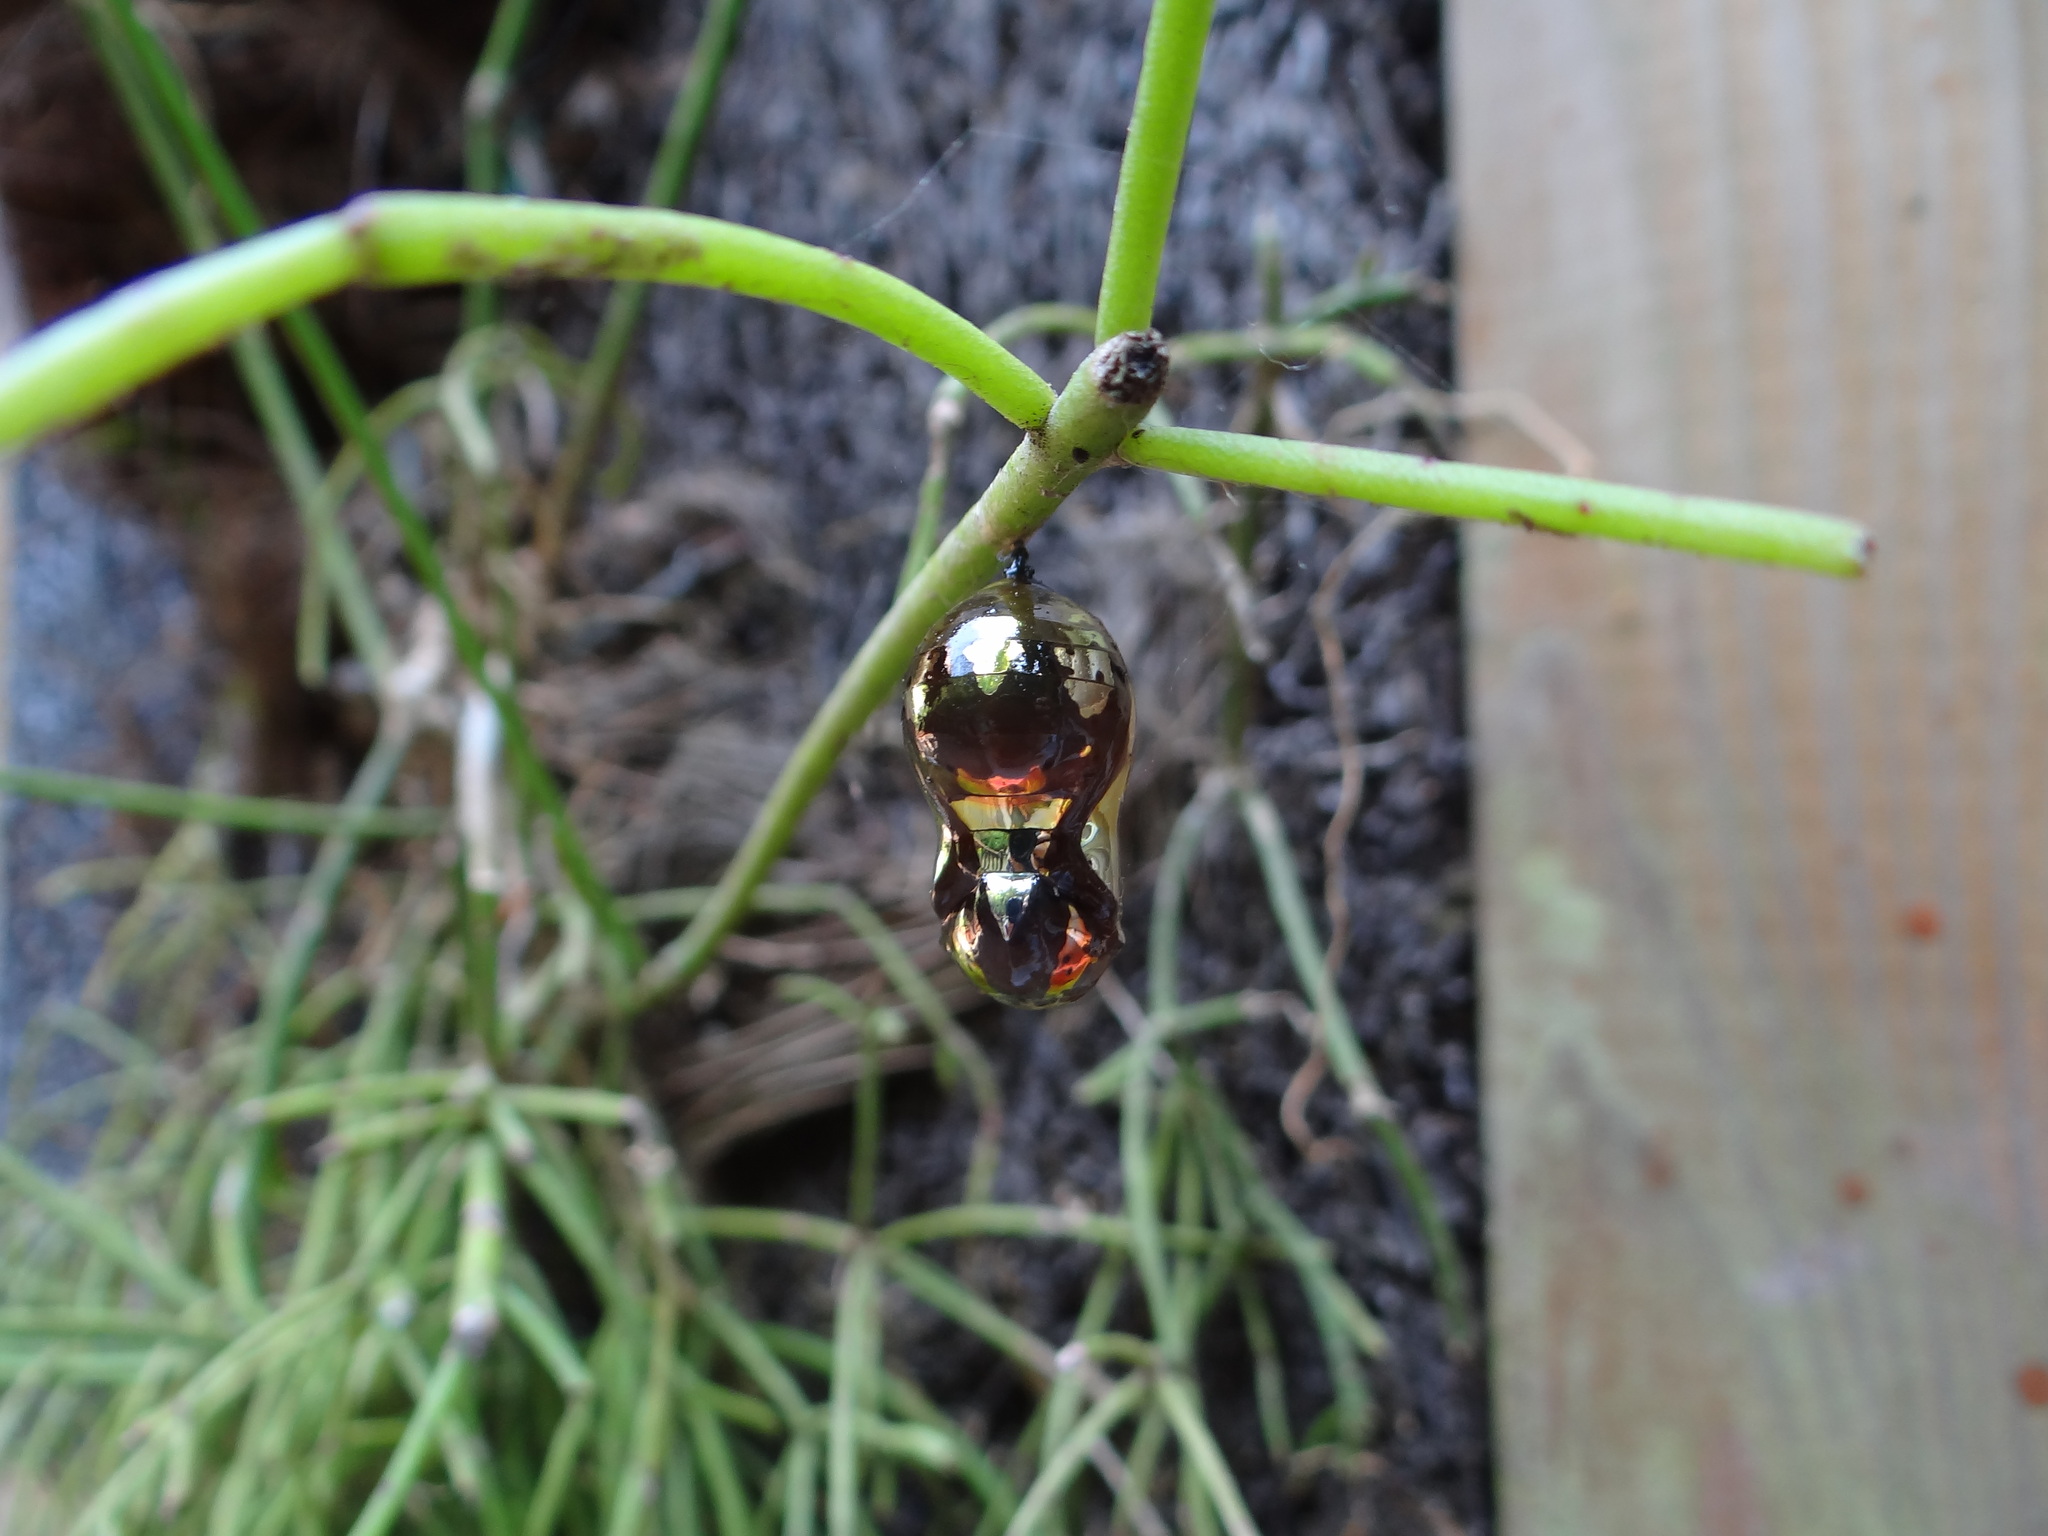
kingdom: Animalia
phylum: Arthropoda
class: Insecta
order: Lepidoptera
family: Nymphalidae
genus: Euploea
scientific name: Euploea mulciber
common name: Striped blue crow butterfly
